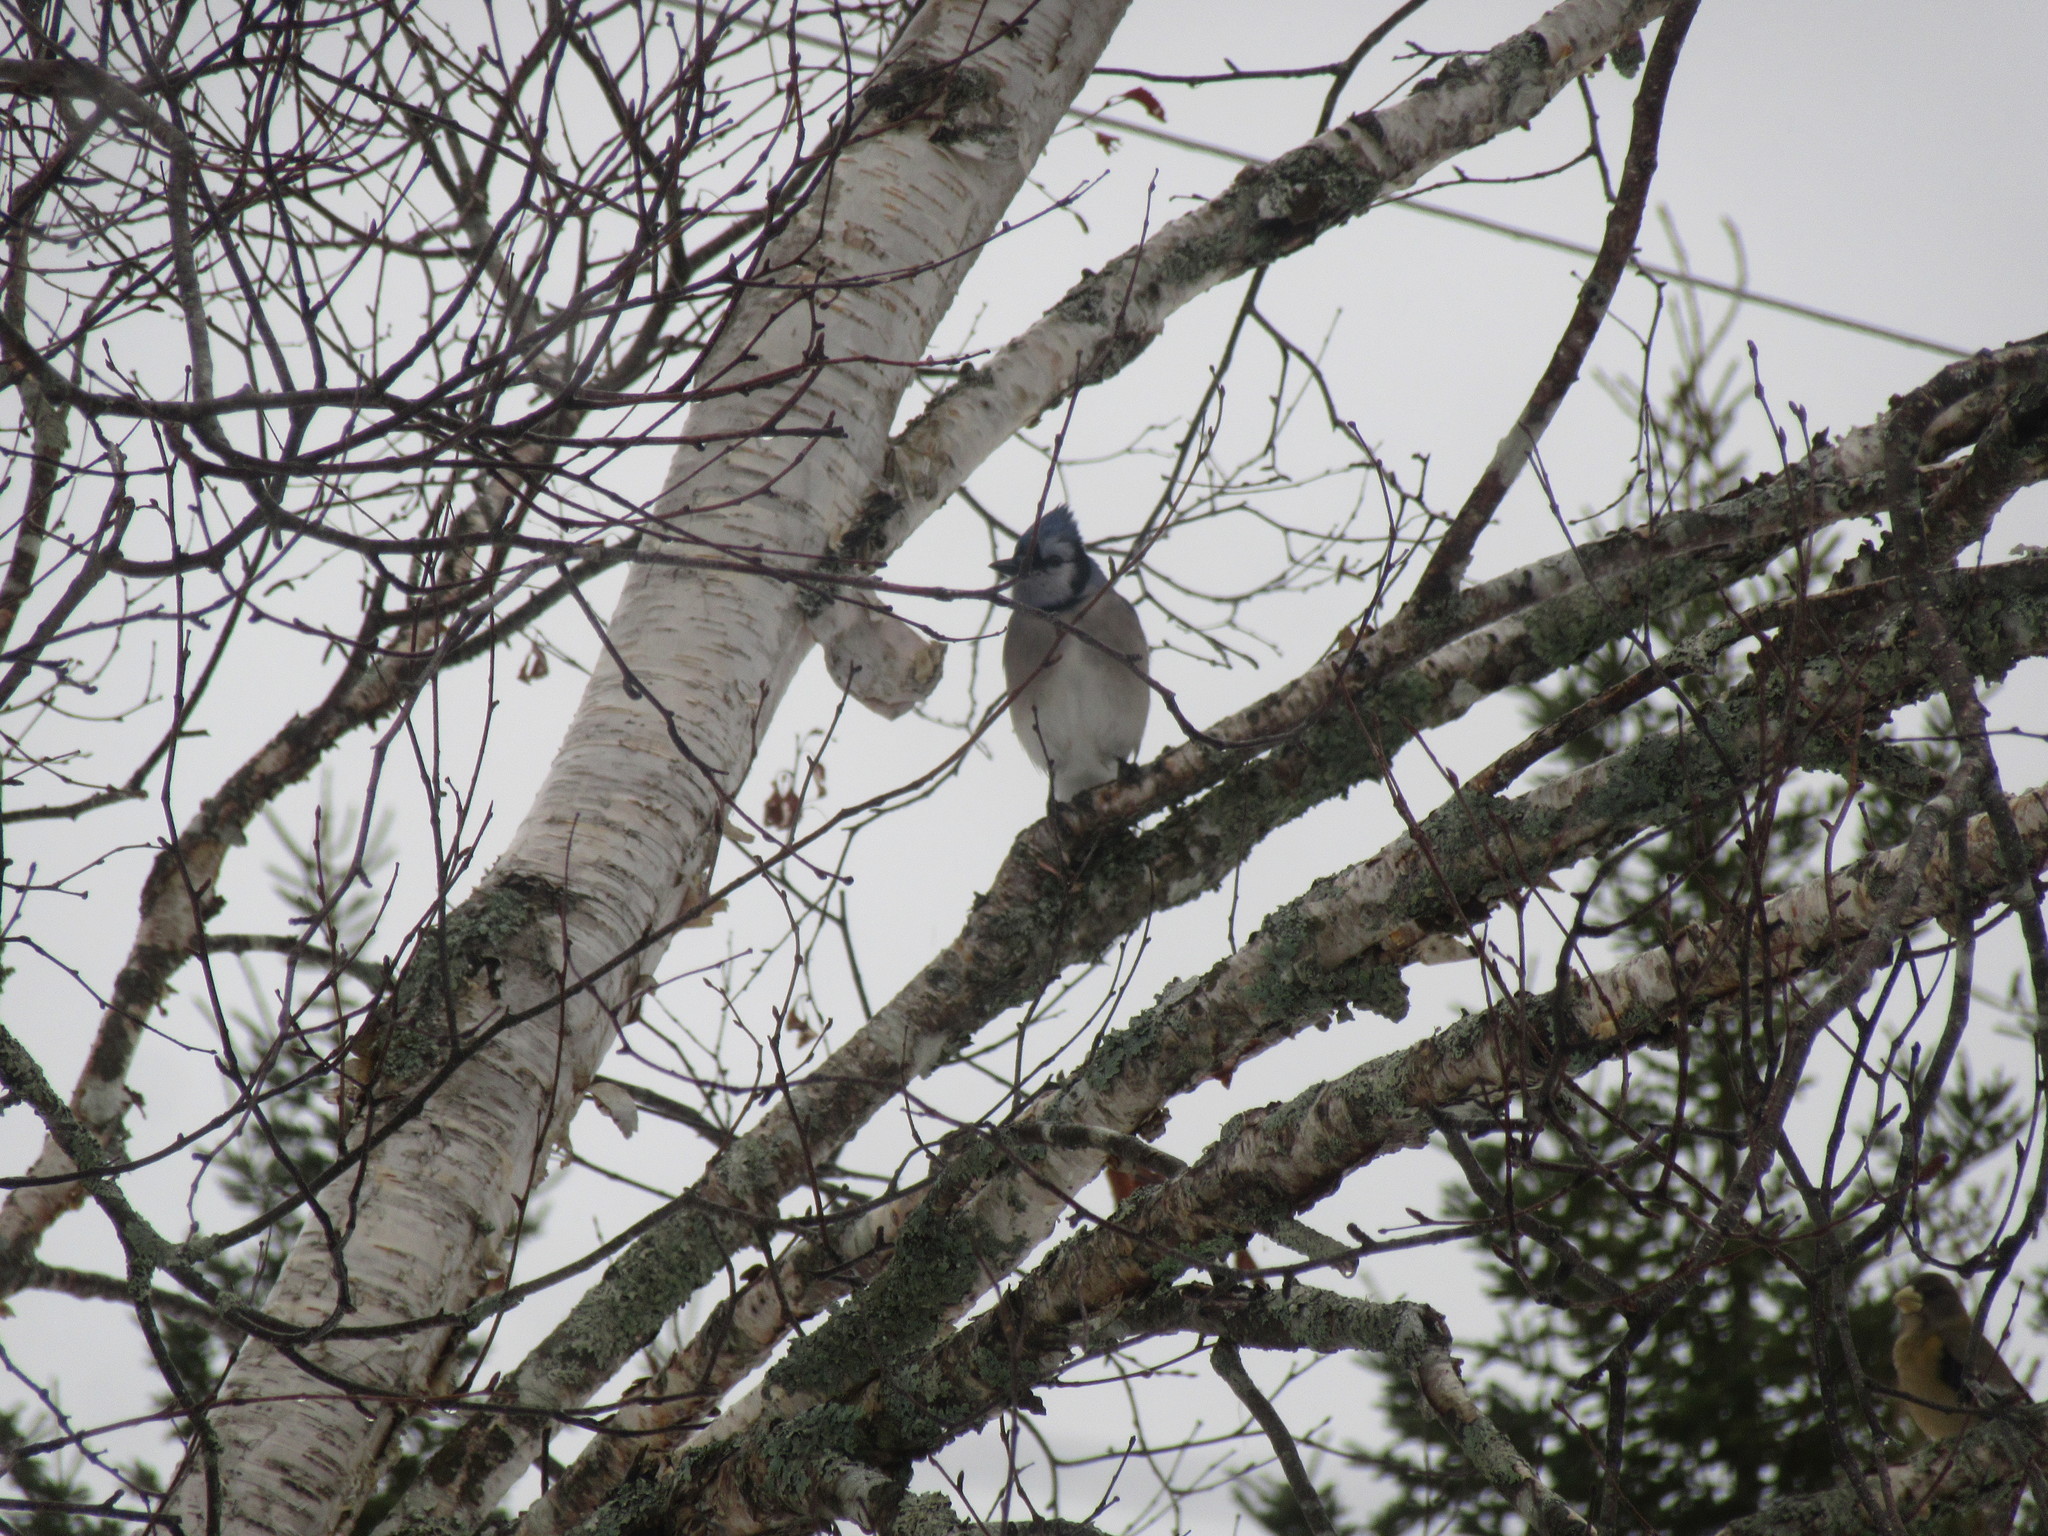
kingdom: Animalia
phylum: Chordata
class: Aves
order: Passeriformes
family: Corvidae
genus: Cyanocitta
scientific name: Cyanocitta cristata
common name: Blue jay
